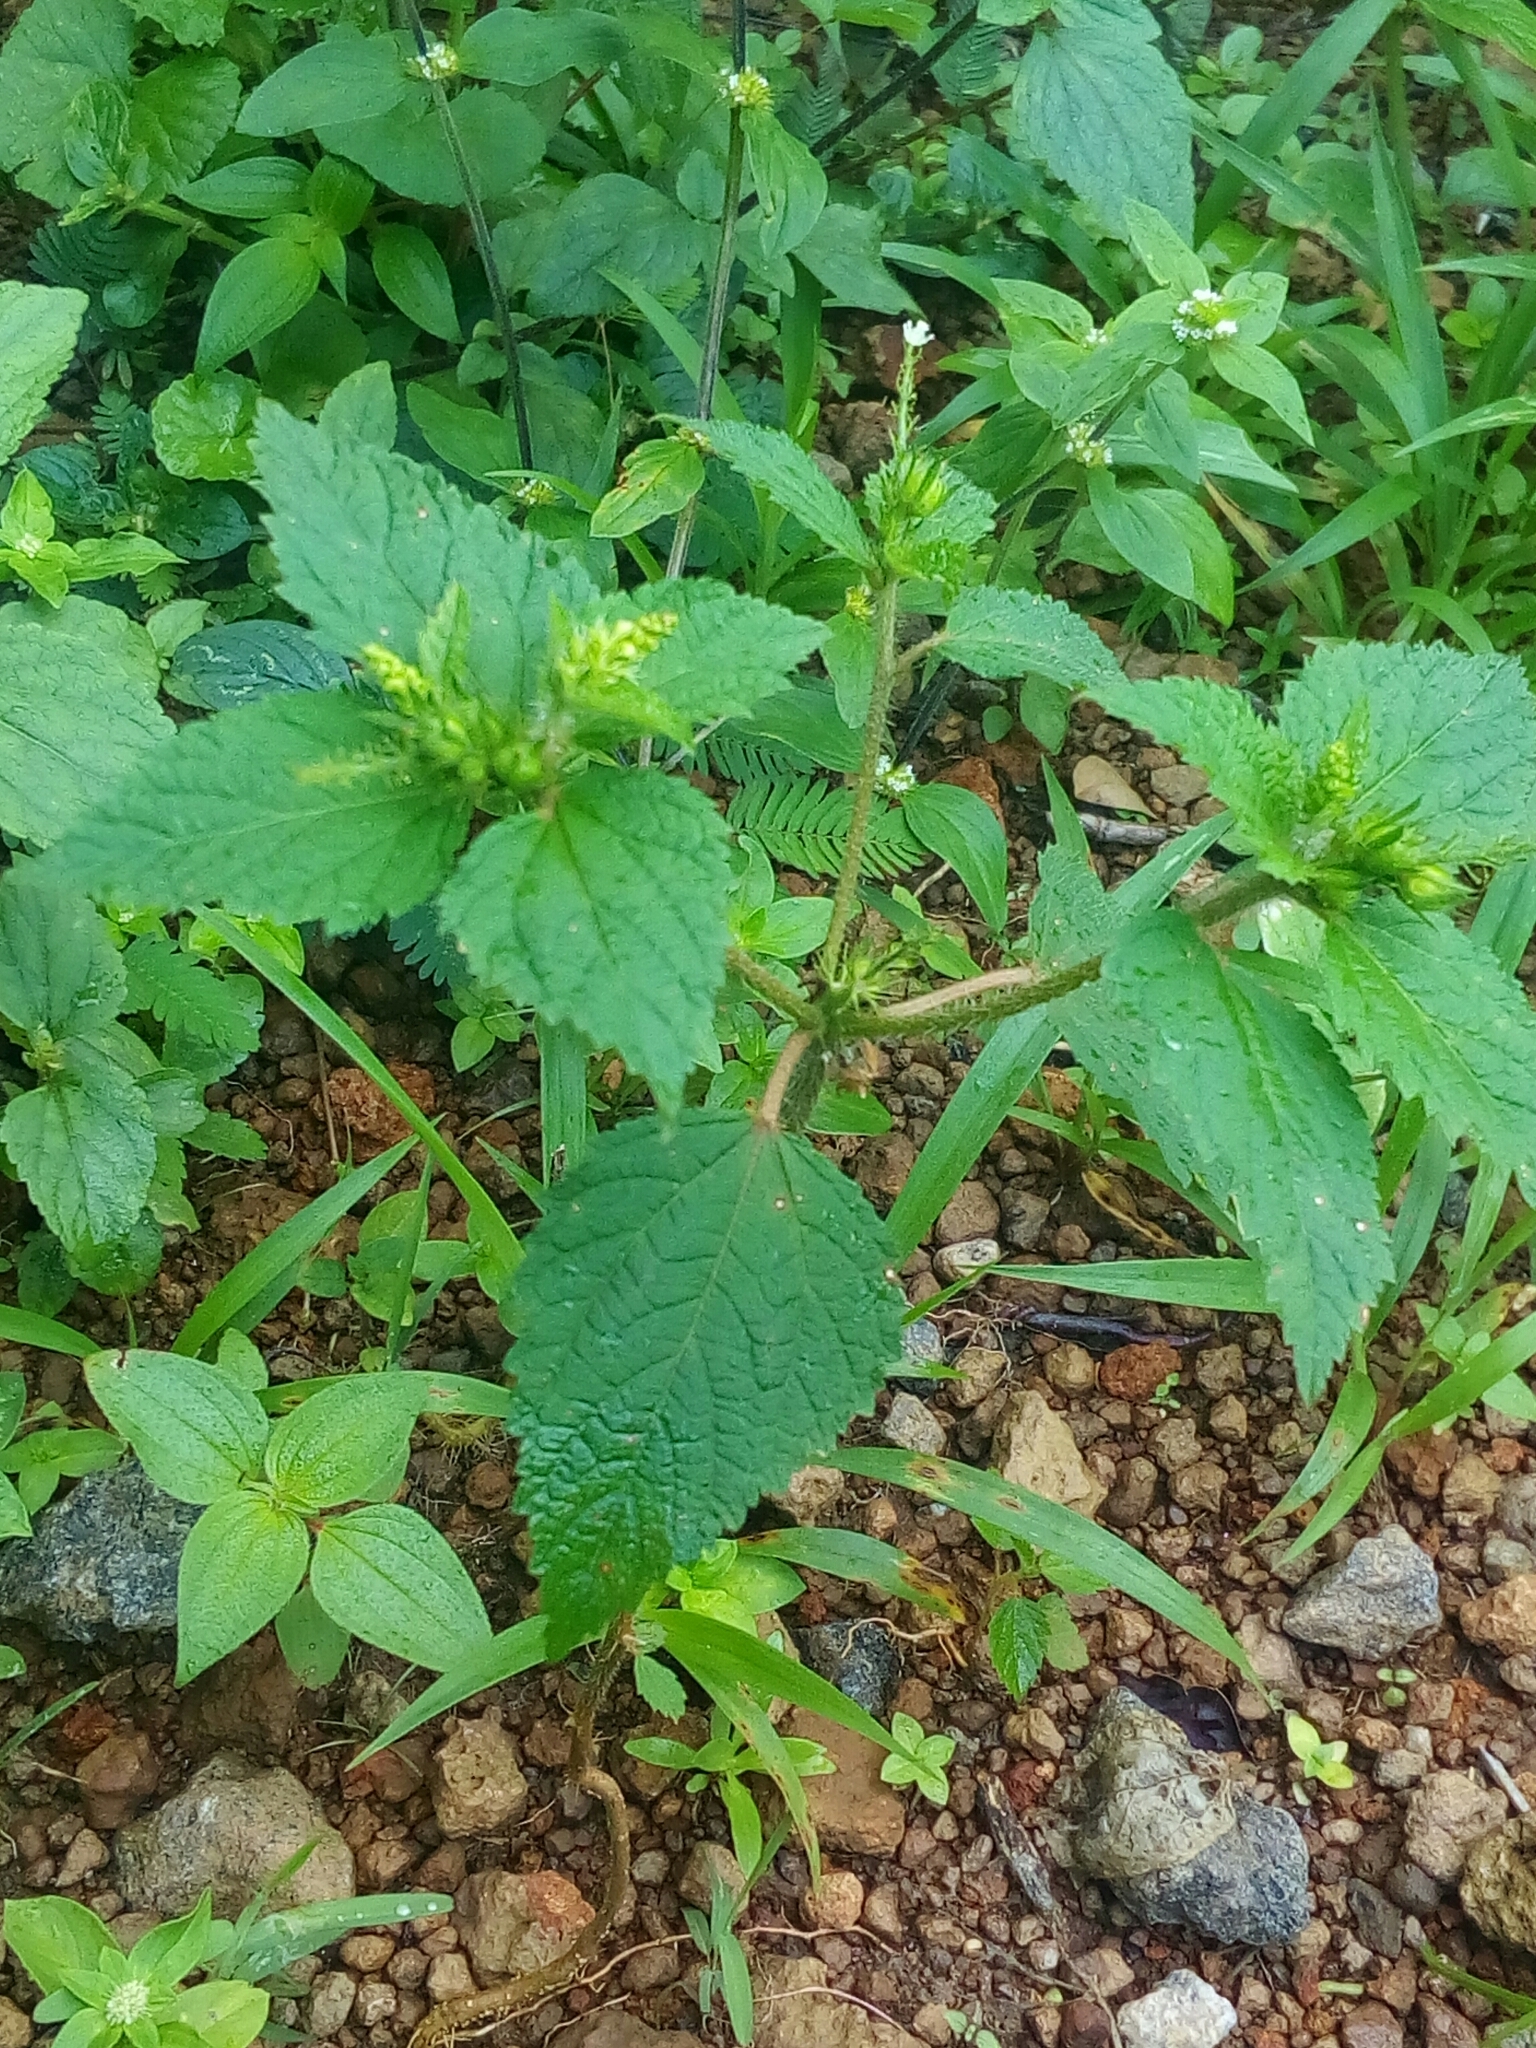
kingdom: Plantae
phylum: Tracheophyta
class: Magnoliopsida
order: Malpighiales
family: Euphorbiaceae
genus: Croton
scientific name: Croton hirtus
